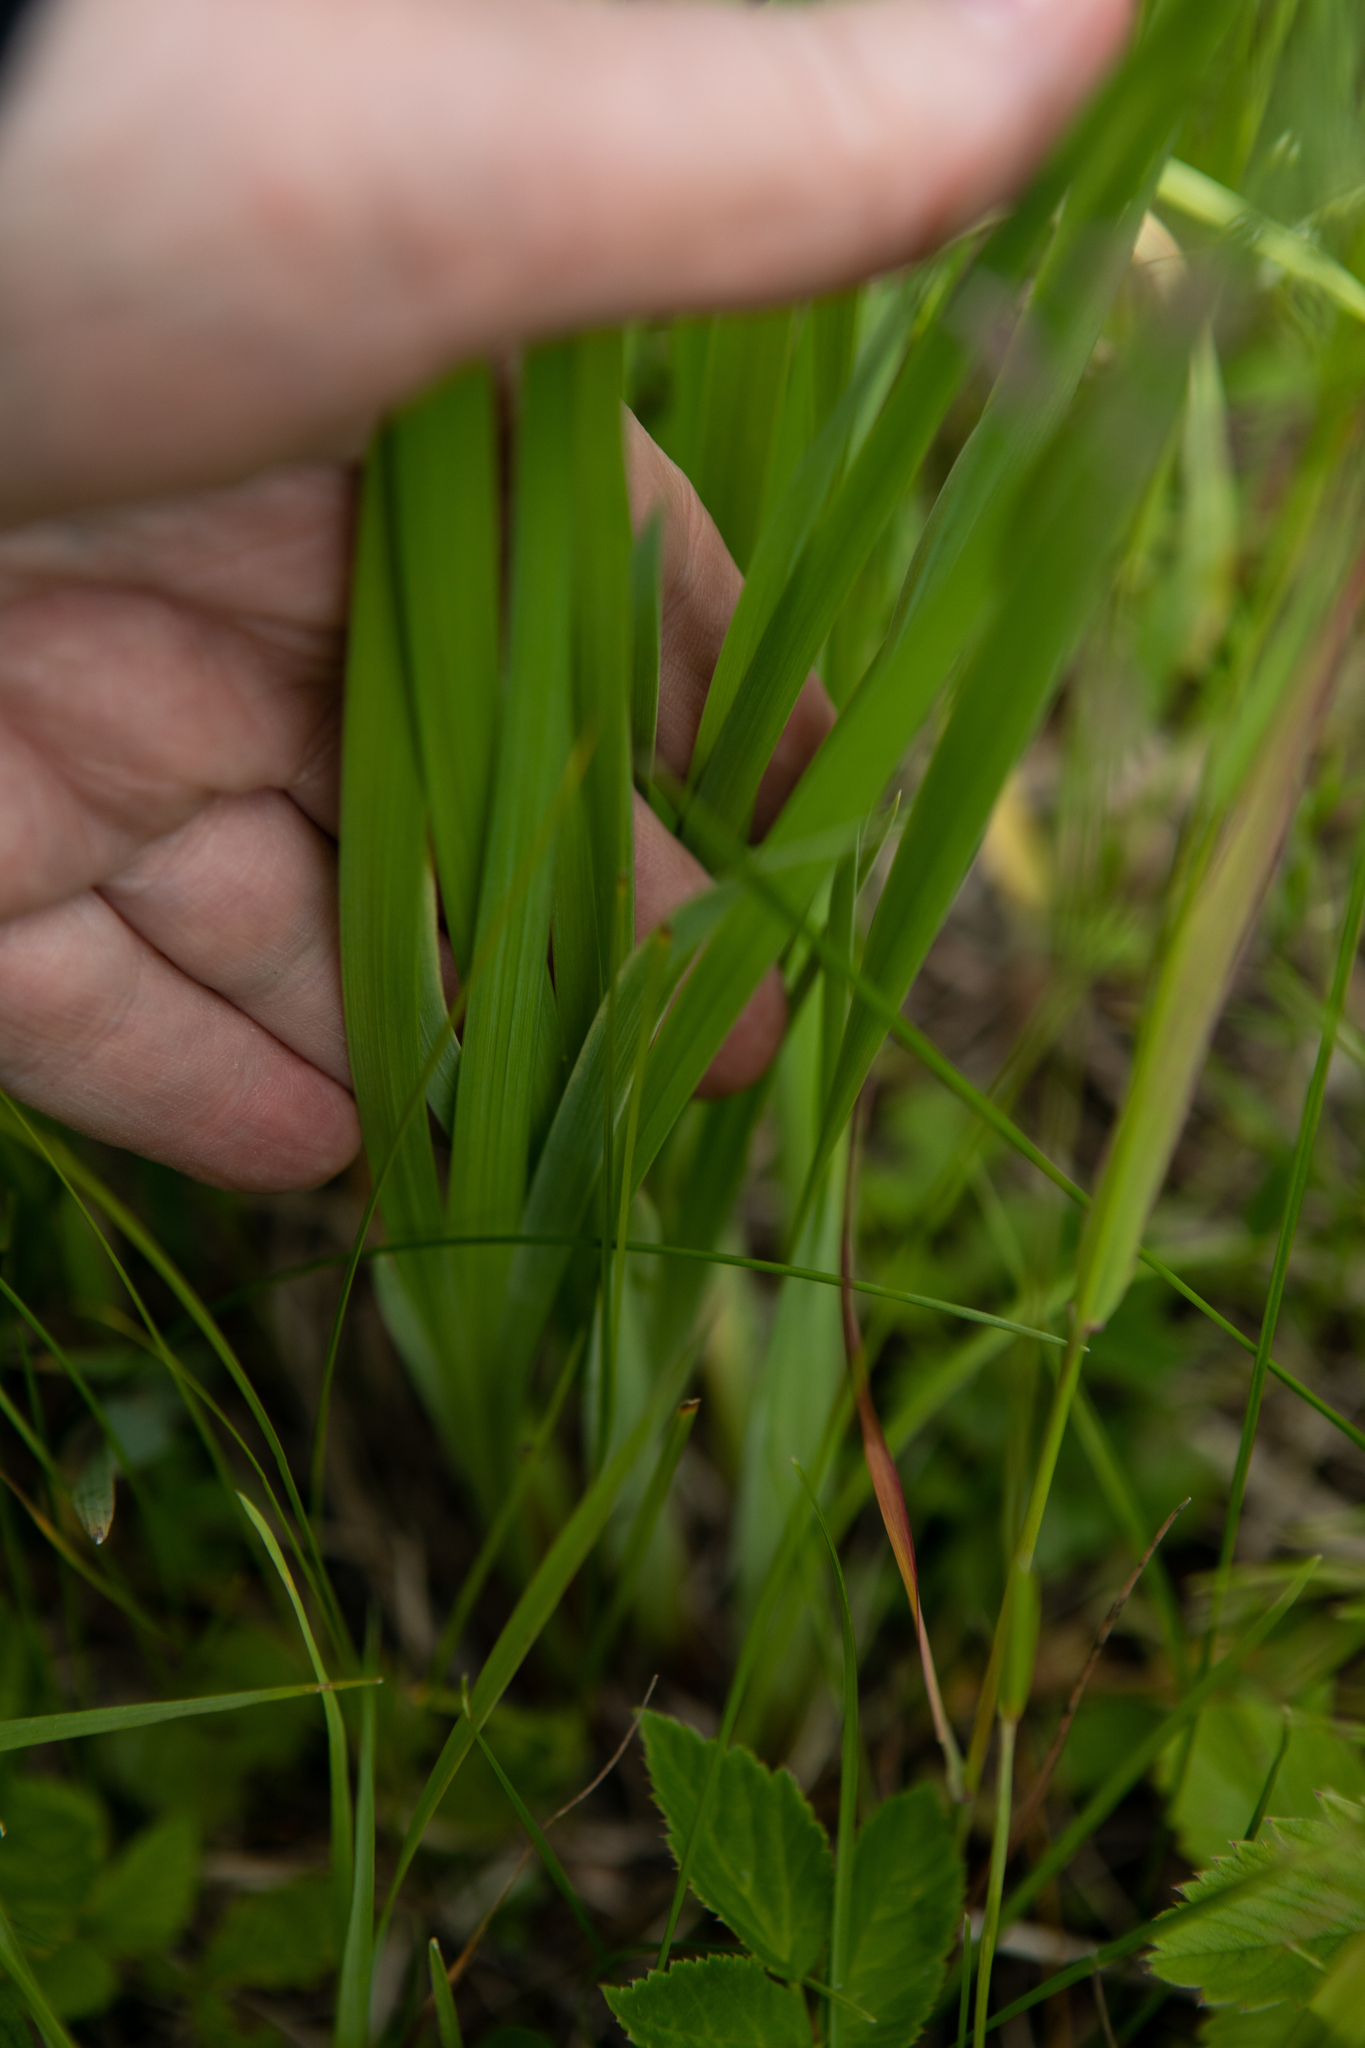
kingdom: Plantae
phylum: Tracheophyta
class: Liliopsida
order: Asparagales
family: Iridaceae
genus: Iris
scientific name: Iris sibirica
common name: Siberian iris
